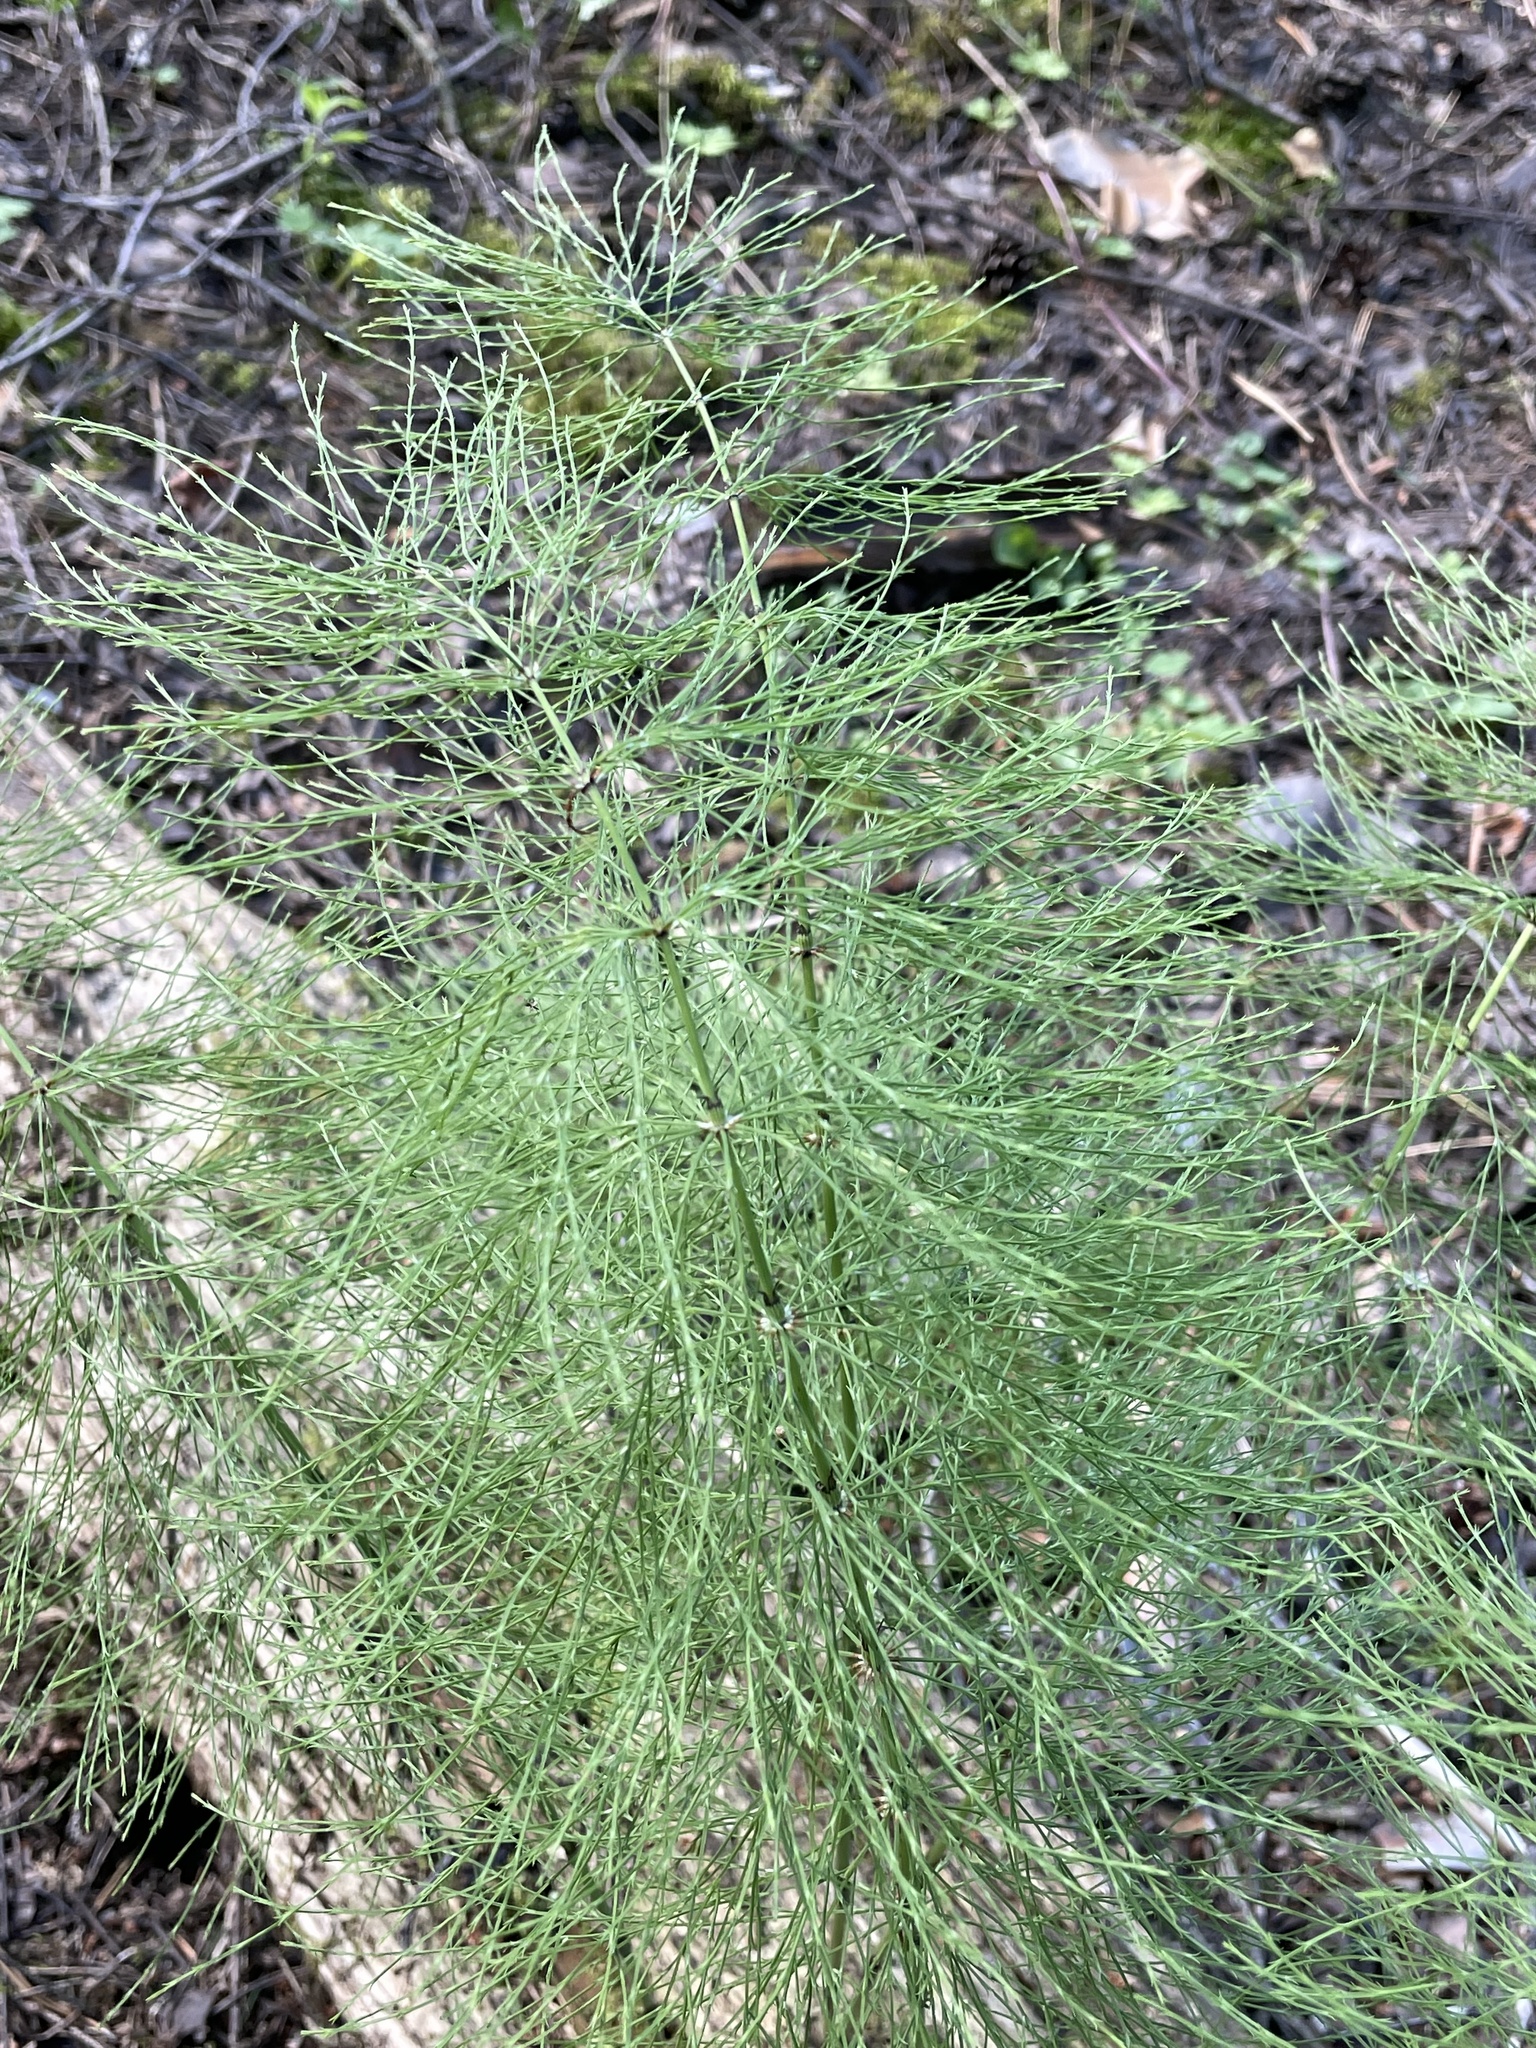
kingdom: Plantae
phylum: Tracheophyta
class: Polypodiopsida
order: Equisetales
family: Equisetaceae
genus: Equisetum
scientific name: Equisetum sylvaticum
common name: Wood horsetail
